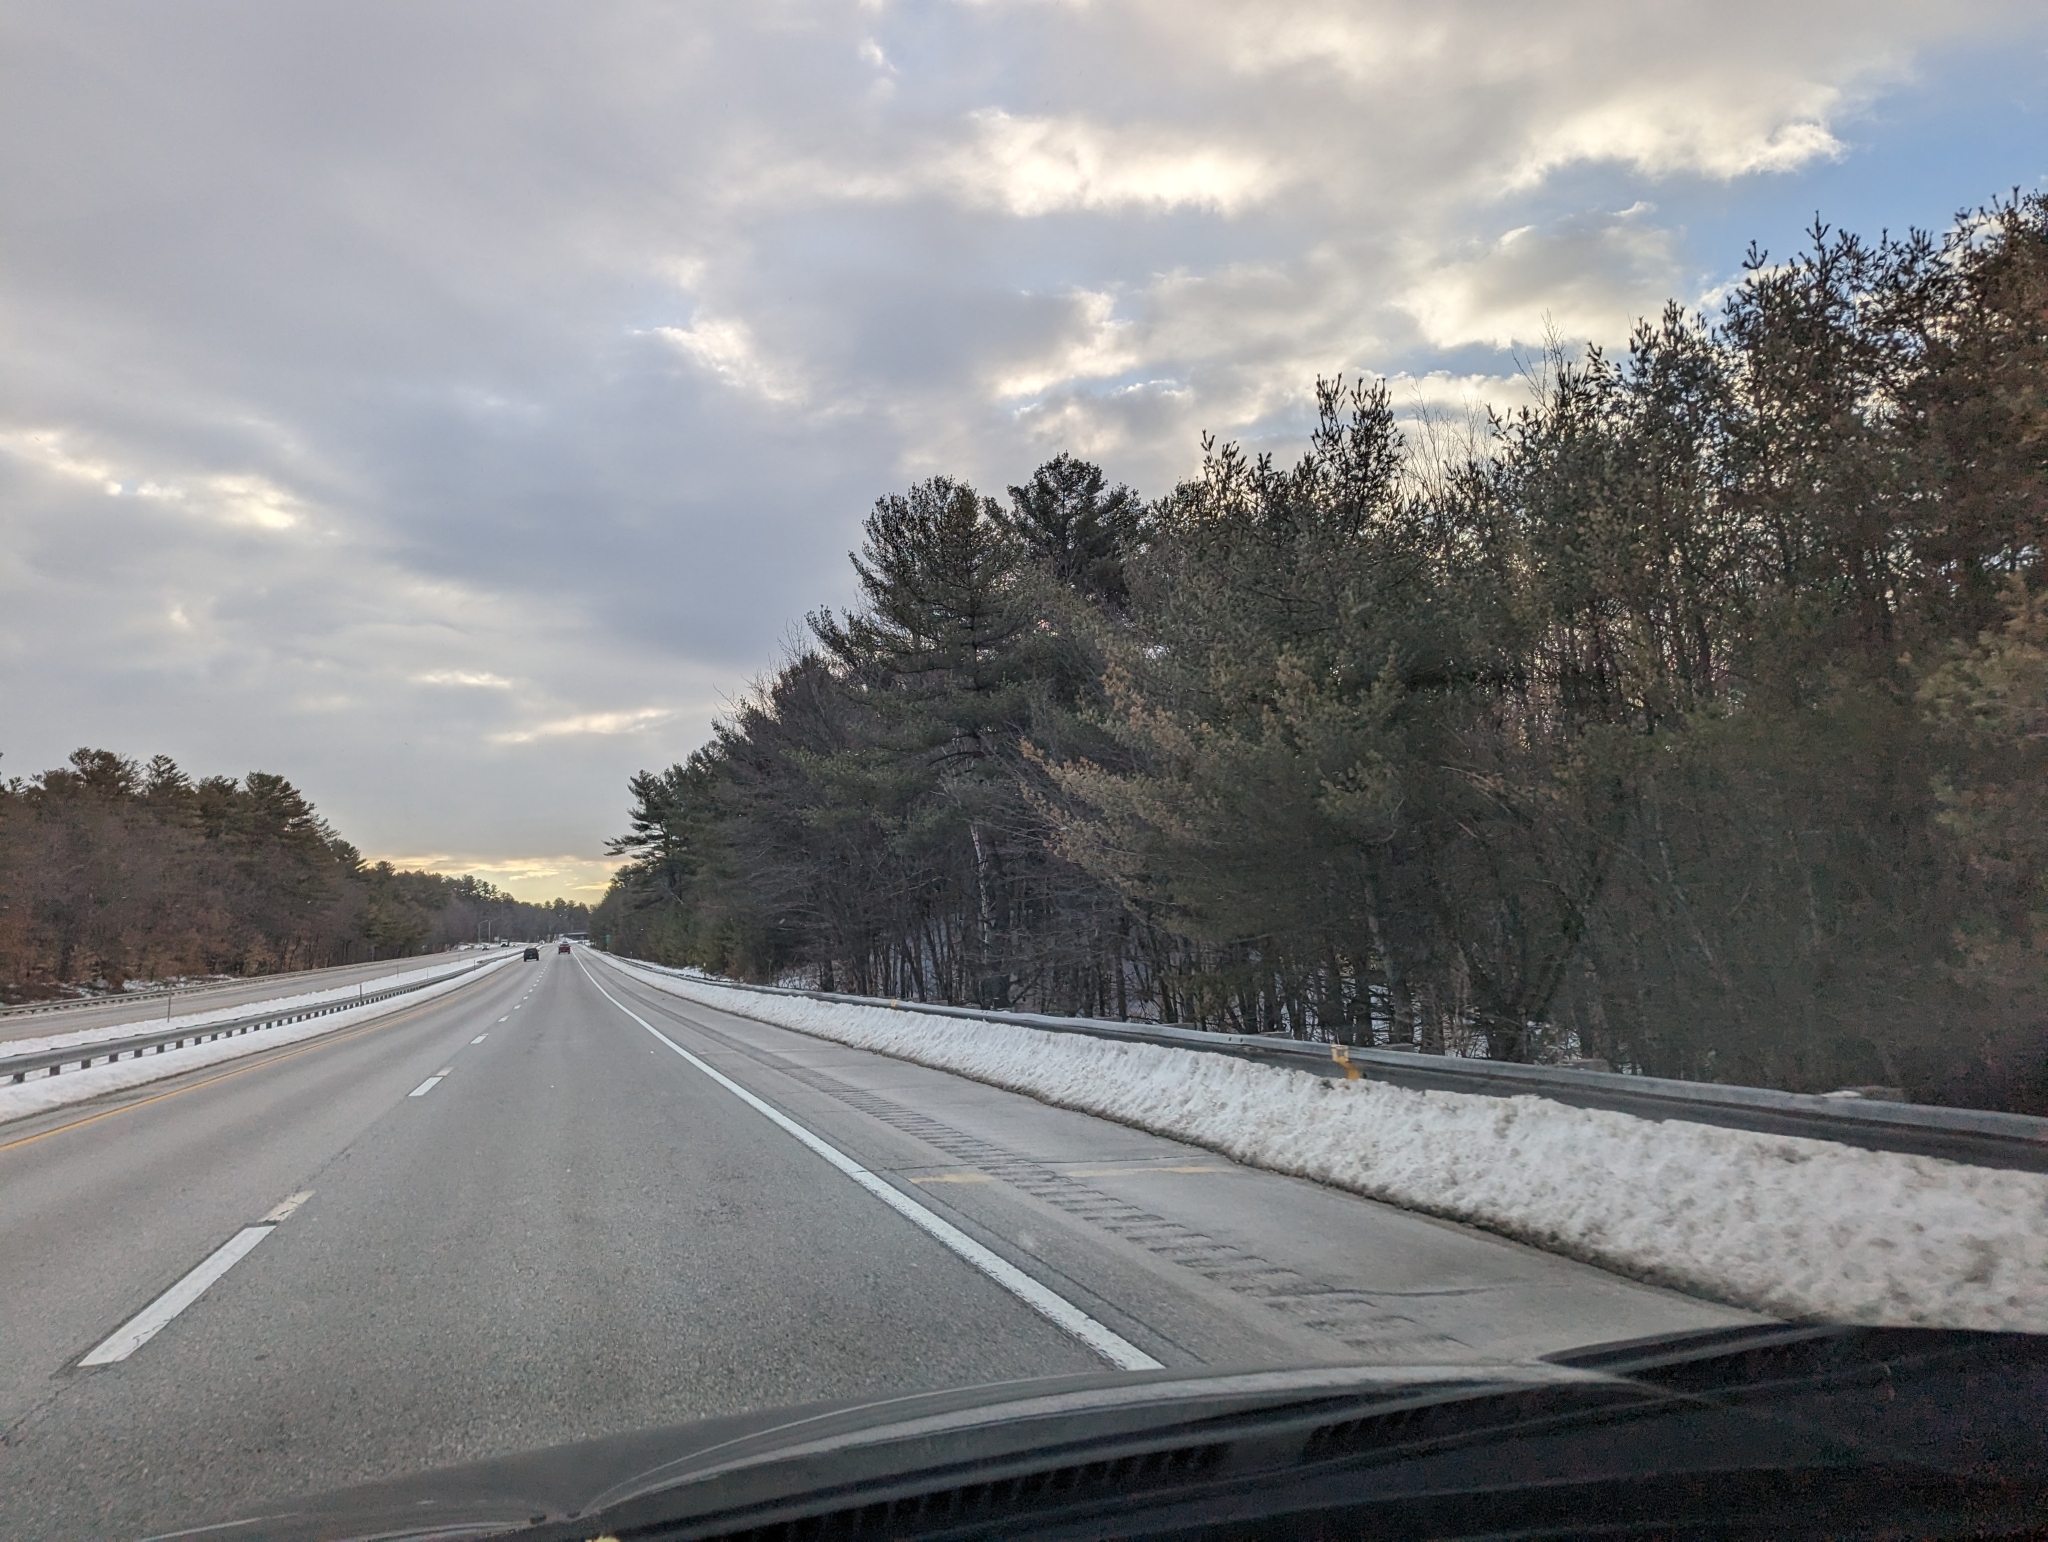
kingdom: Plantae
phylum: Tracheophyta
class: Pinopsida
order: Pinales
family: Pinaceae
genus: Pinus
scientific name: Pinus strobus
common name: Weymouth pine
